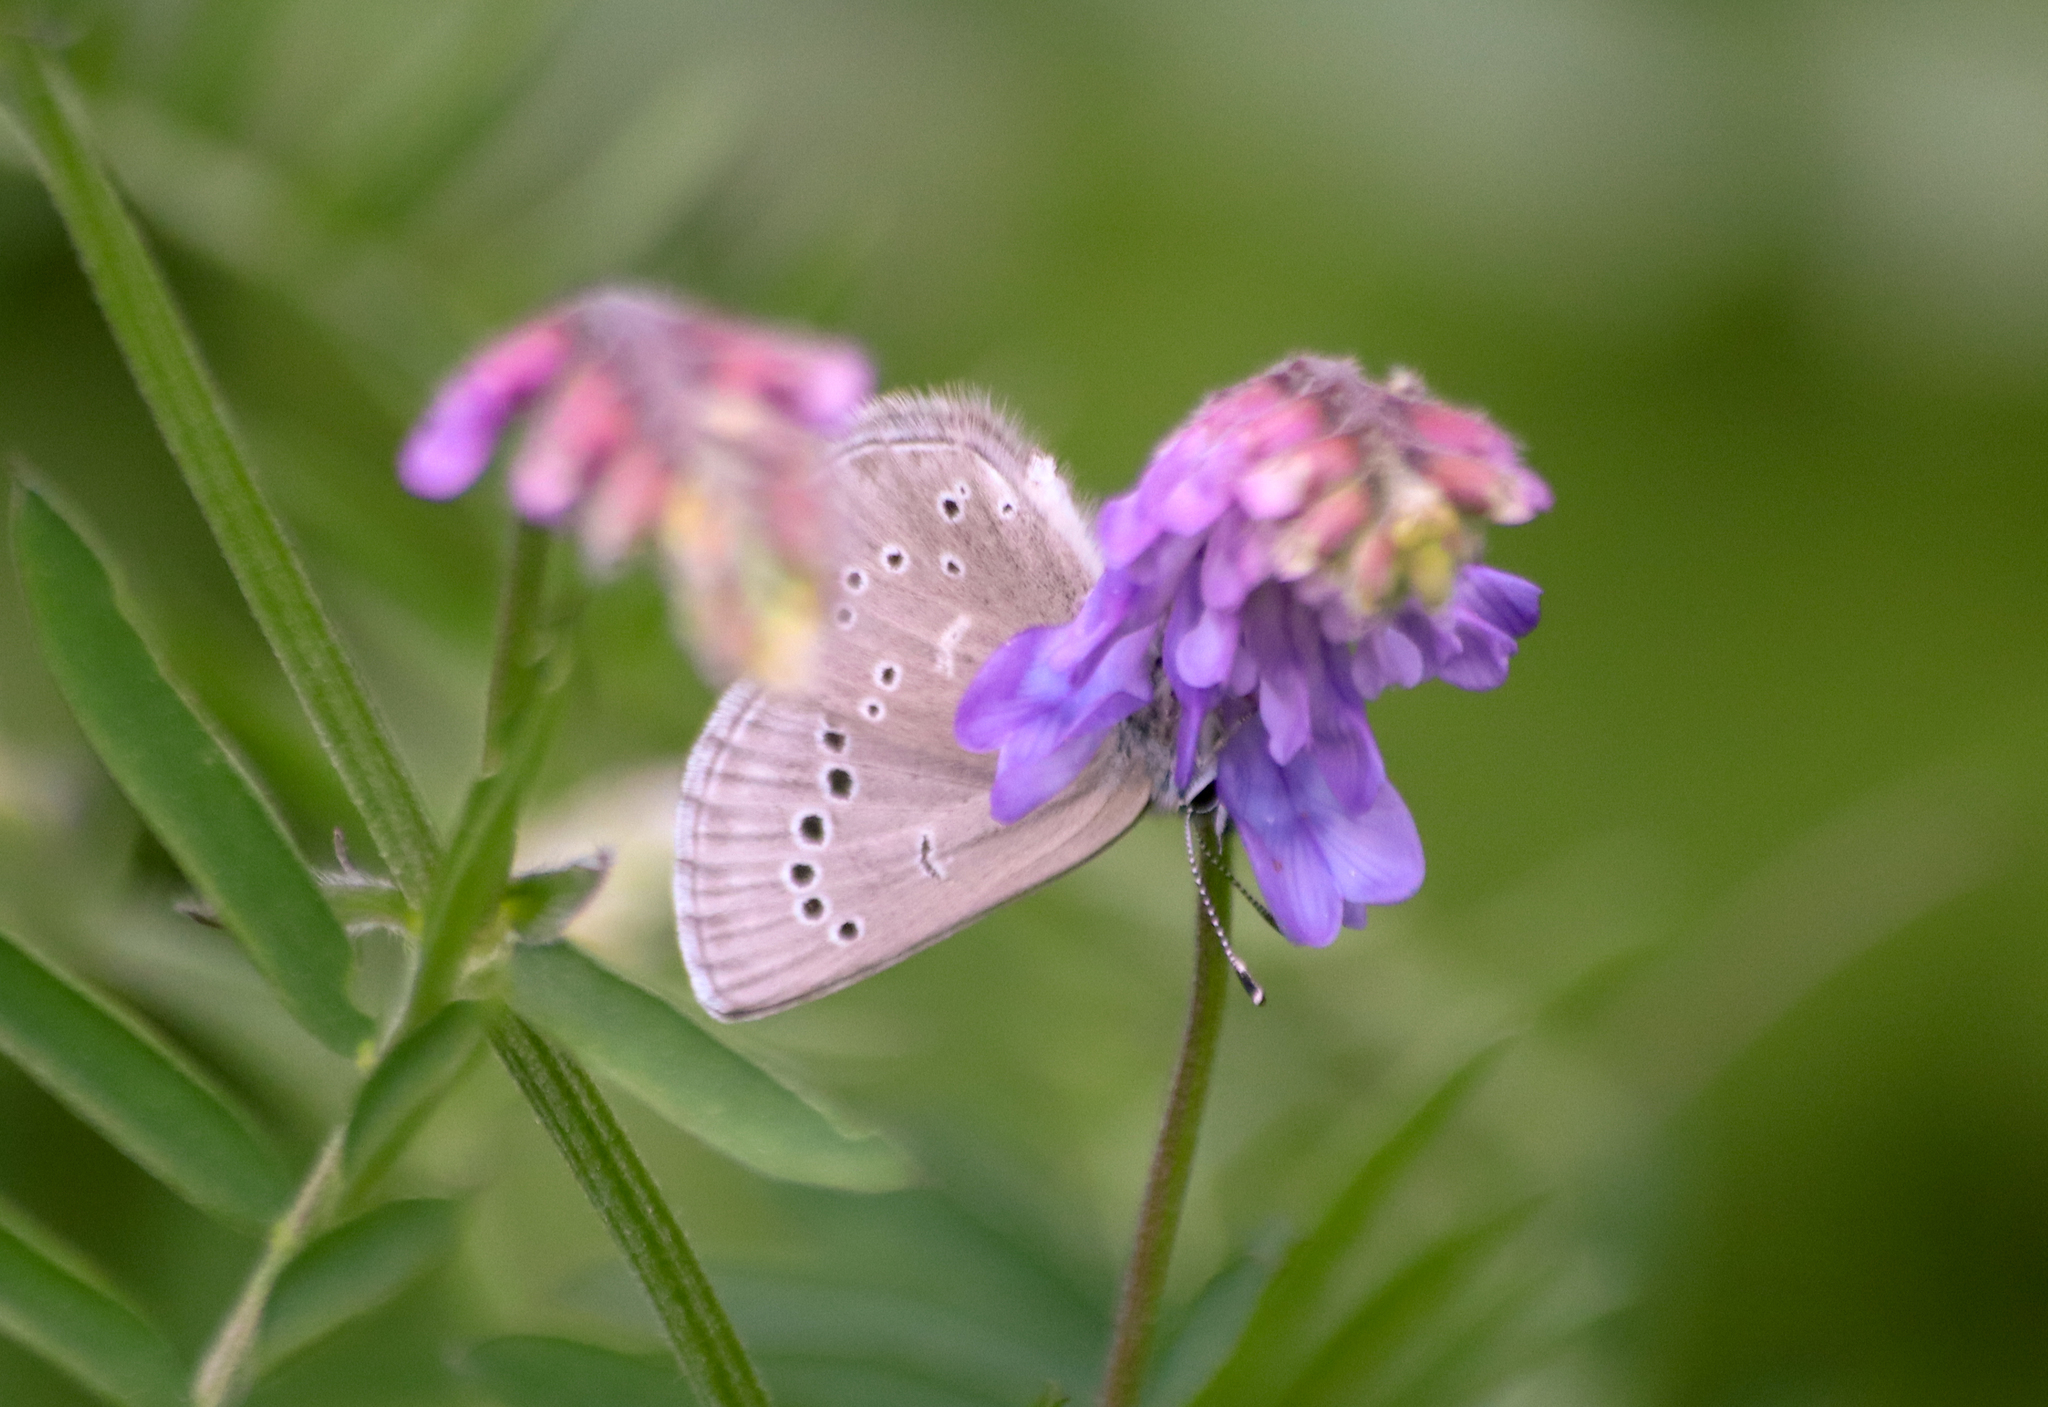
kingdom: Animalia
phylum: Arthropoda
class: Insecta
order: Lepidoptera
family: Lycaenidae
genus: Glaucopsyche
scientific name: Glaucopsyche lygdamus
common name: Silvery blue
